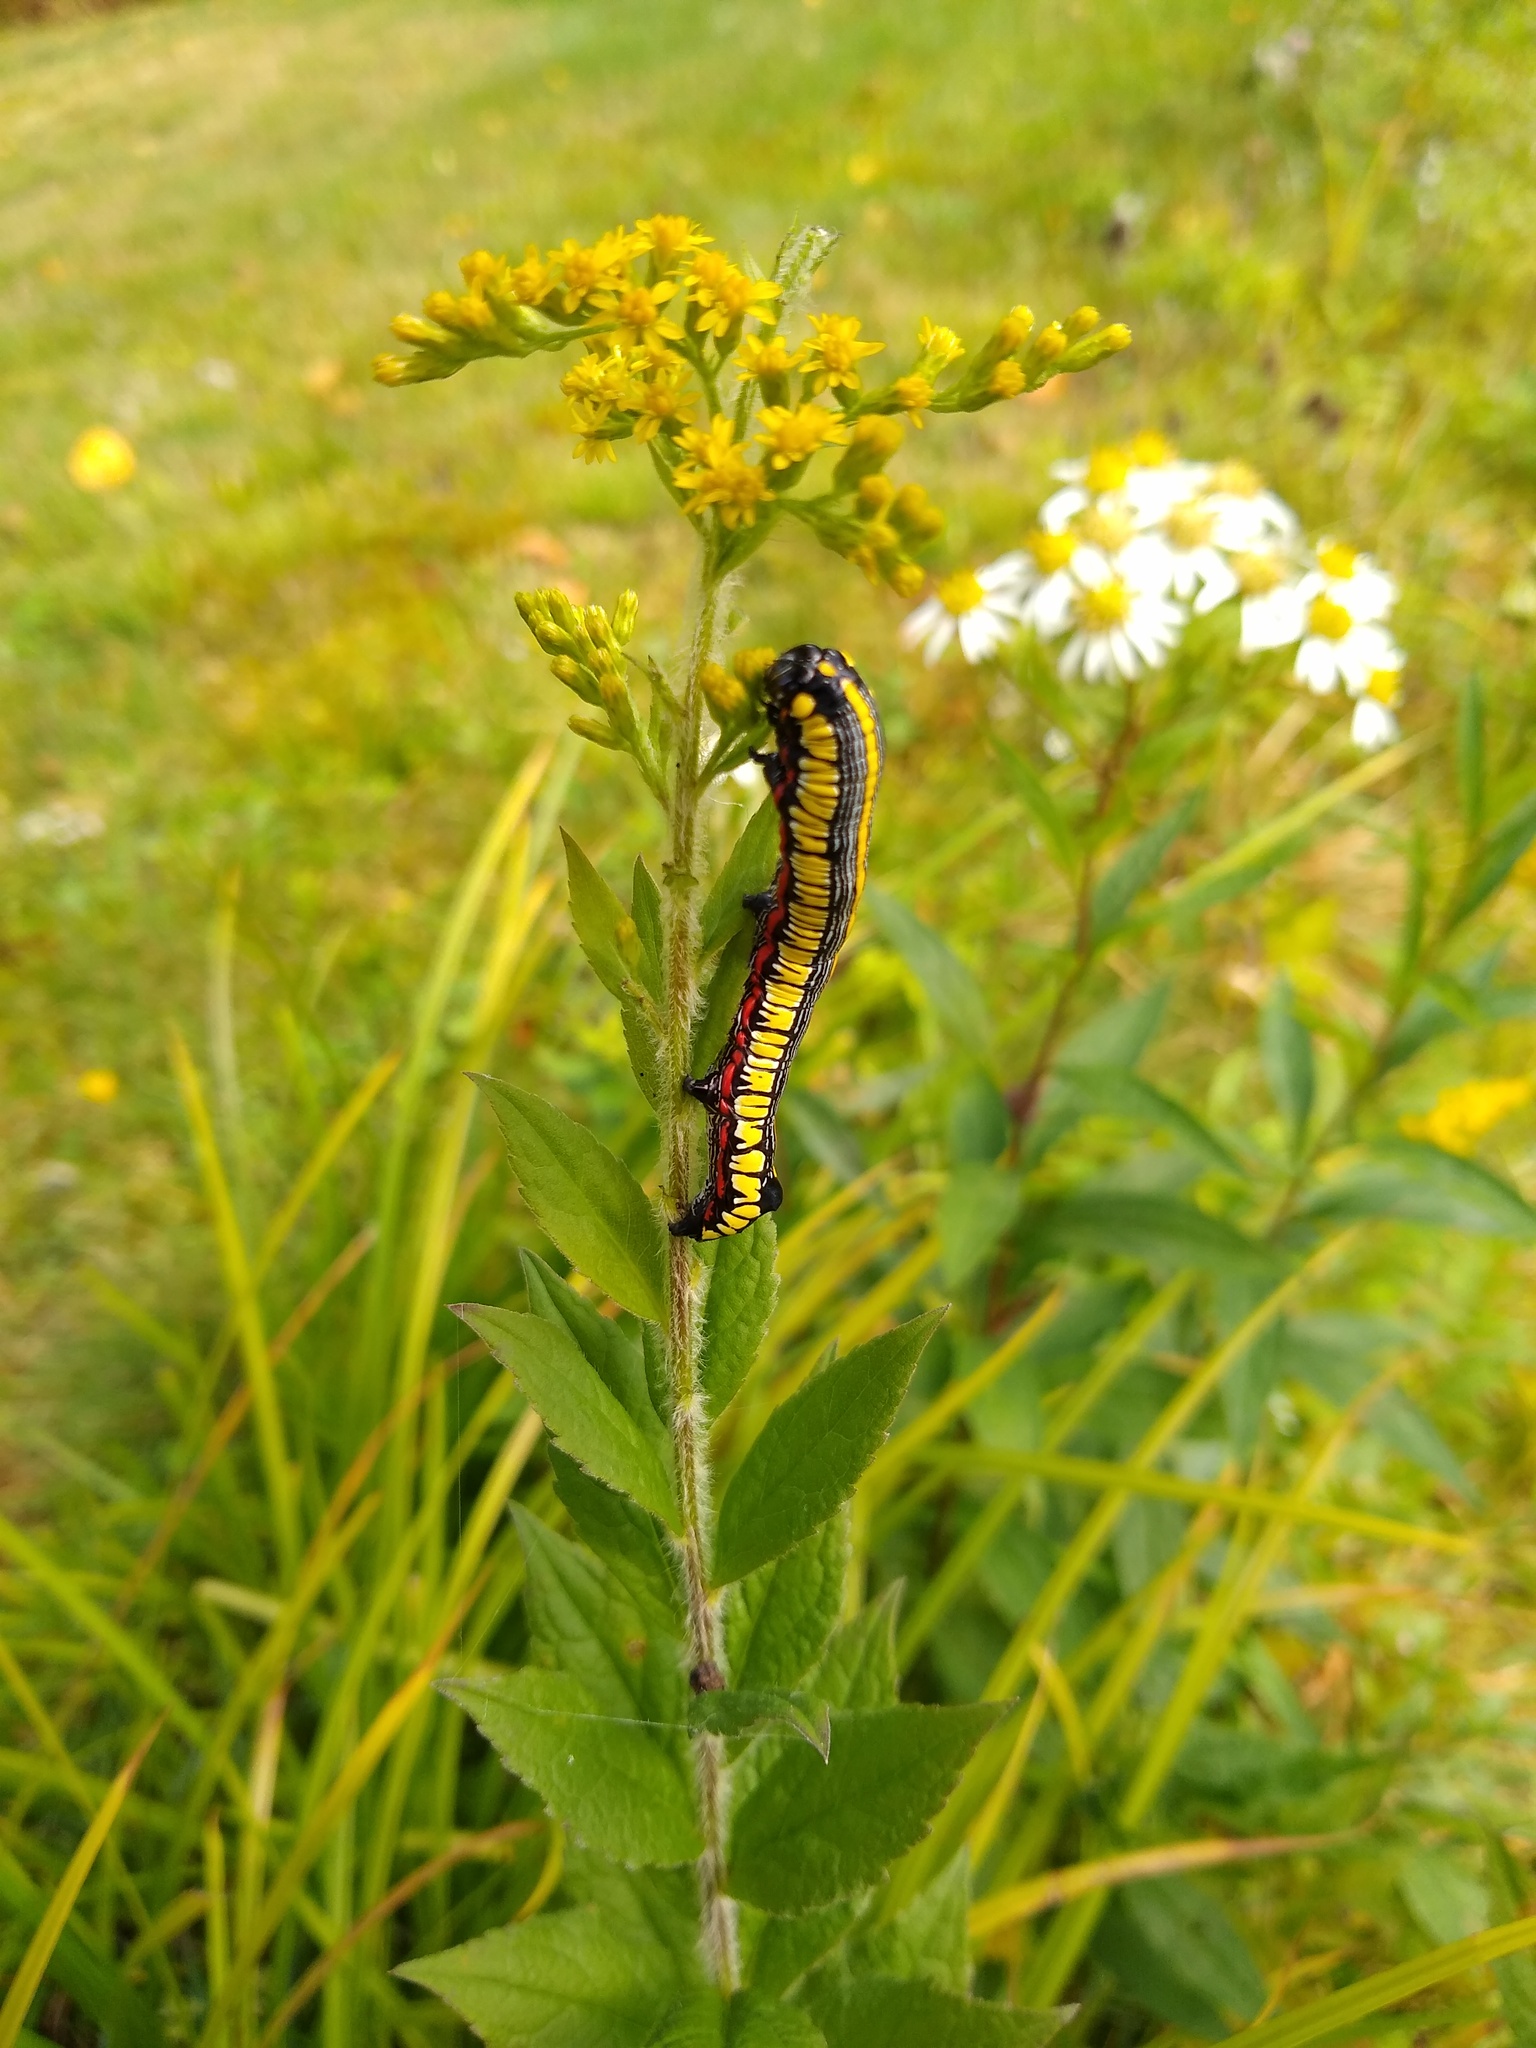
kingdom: Animalia
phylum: Arthropoda
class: Insecta
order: Lepidoptera
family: Noctuidae
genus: Cucullia
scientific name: Cucullia convexipennis
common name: Brown-hooded owlet
